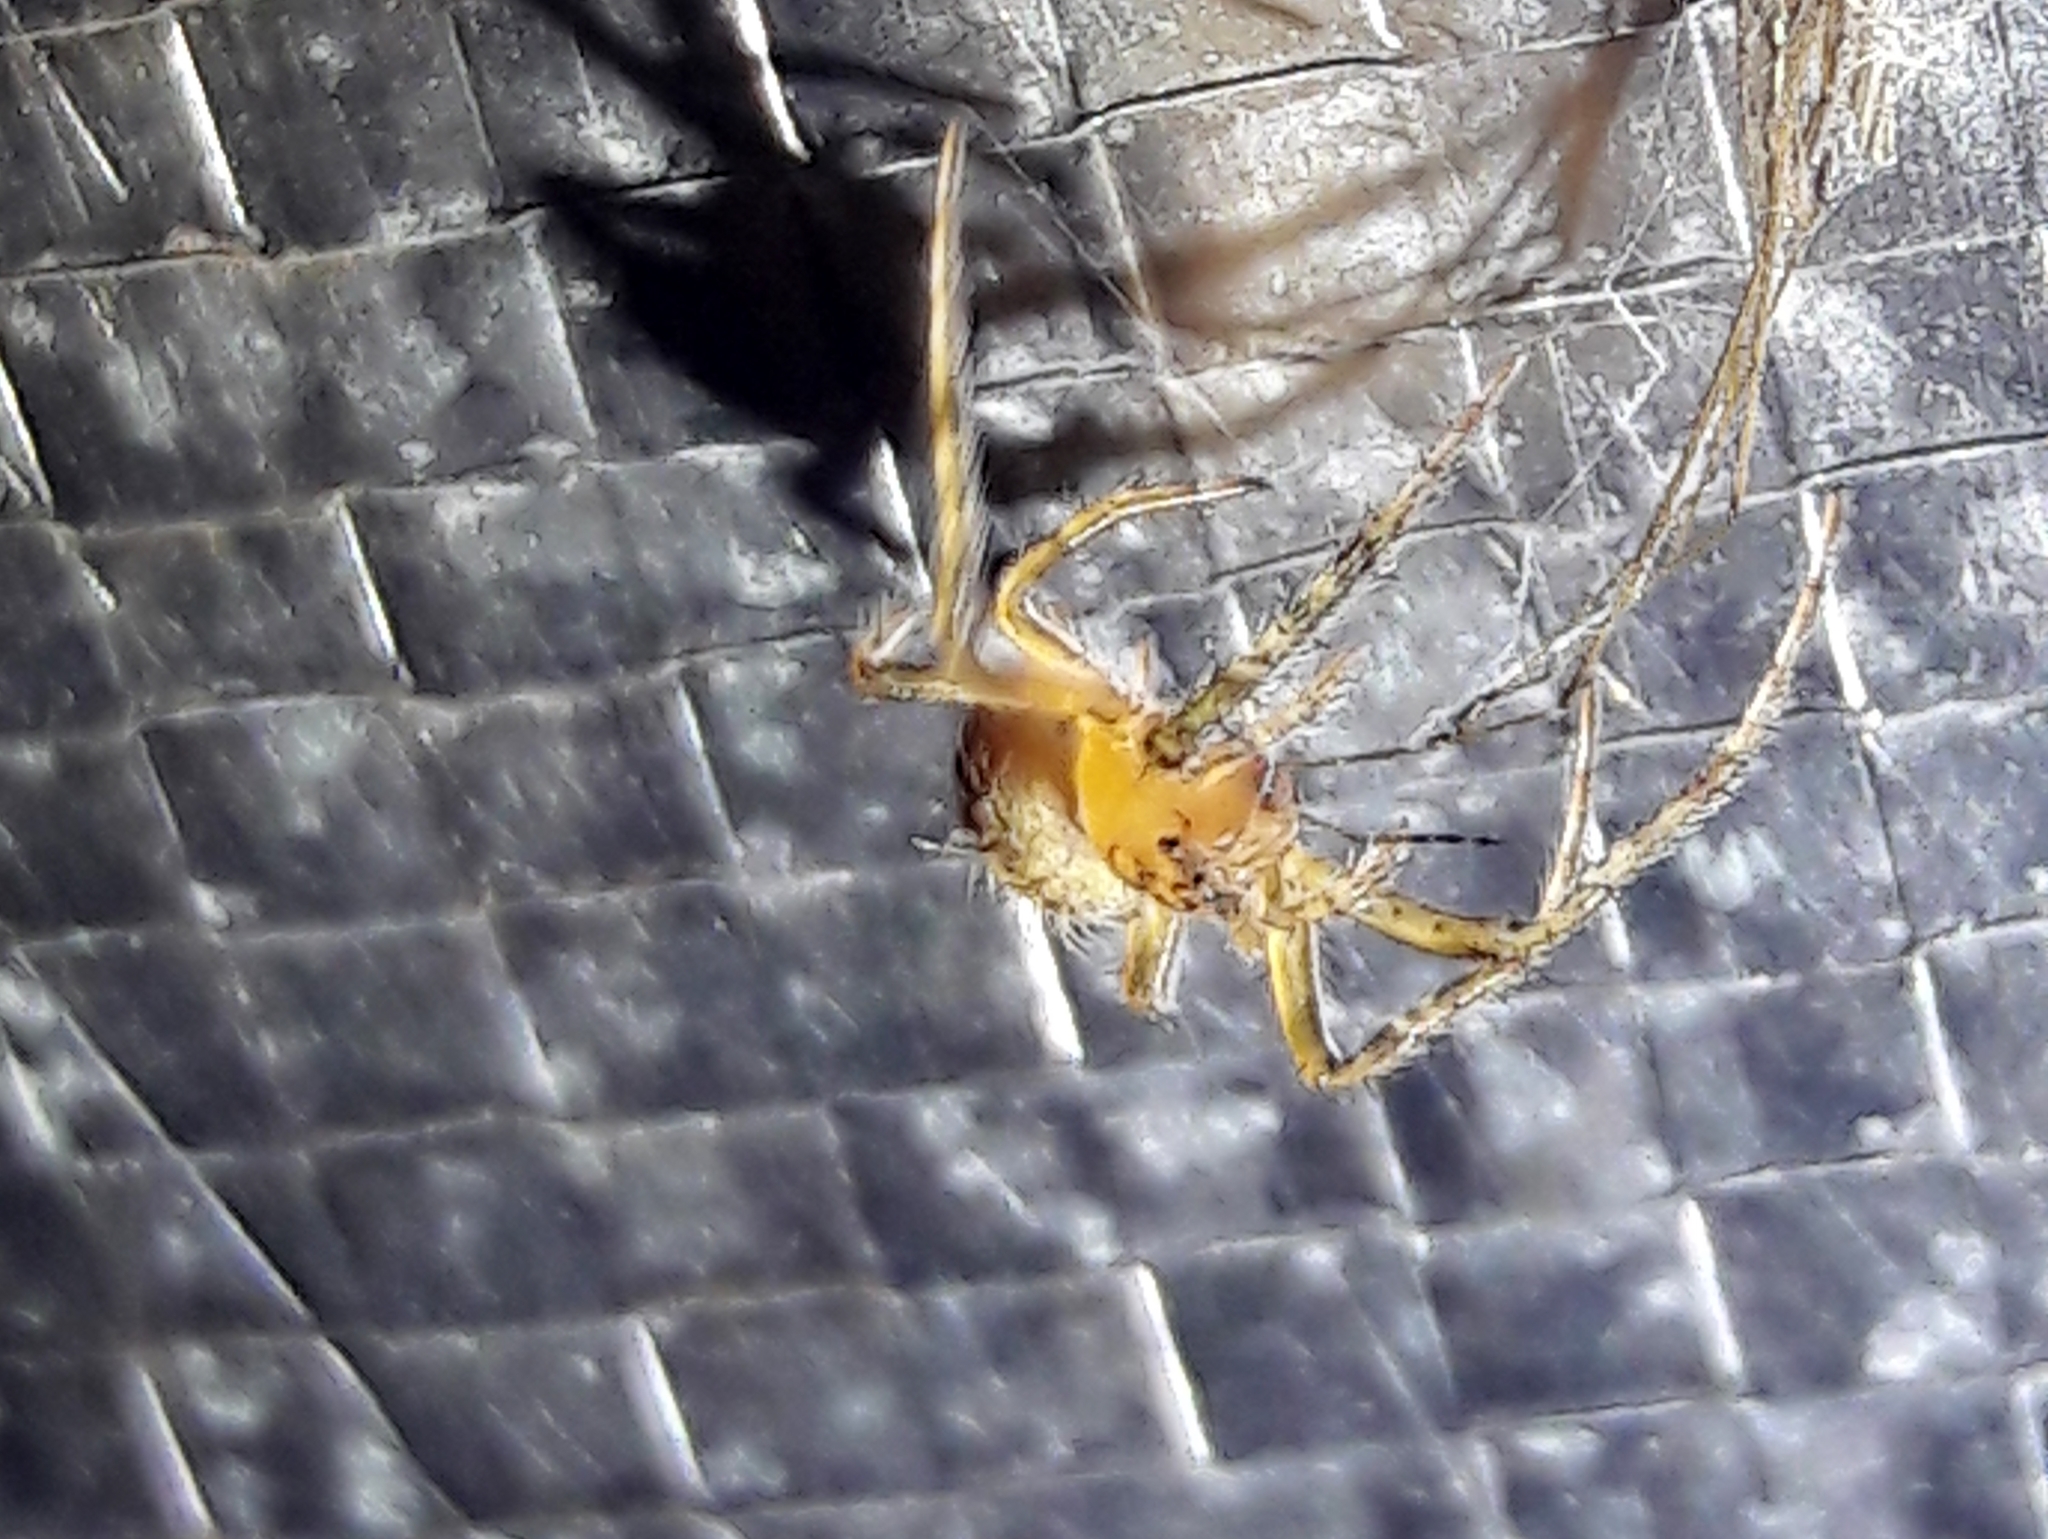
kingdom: Animalia
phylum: Arthropoda
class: Arachnida
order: Araneae
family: Araneidae
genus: Eriophora
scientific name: Eriophora edax
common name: Orb weavers
